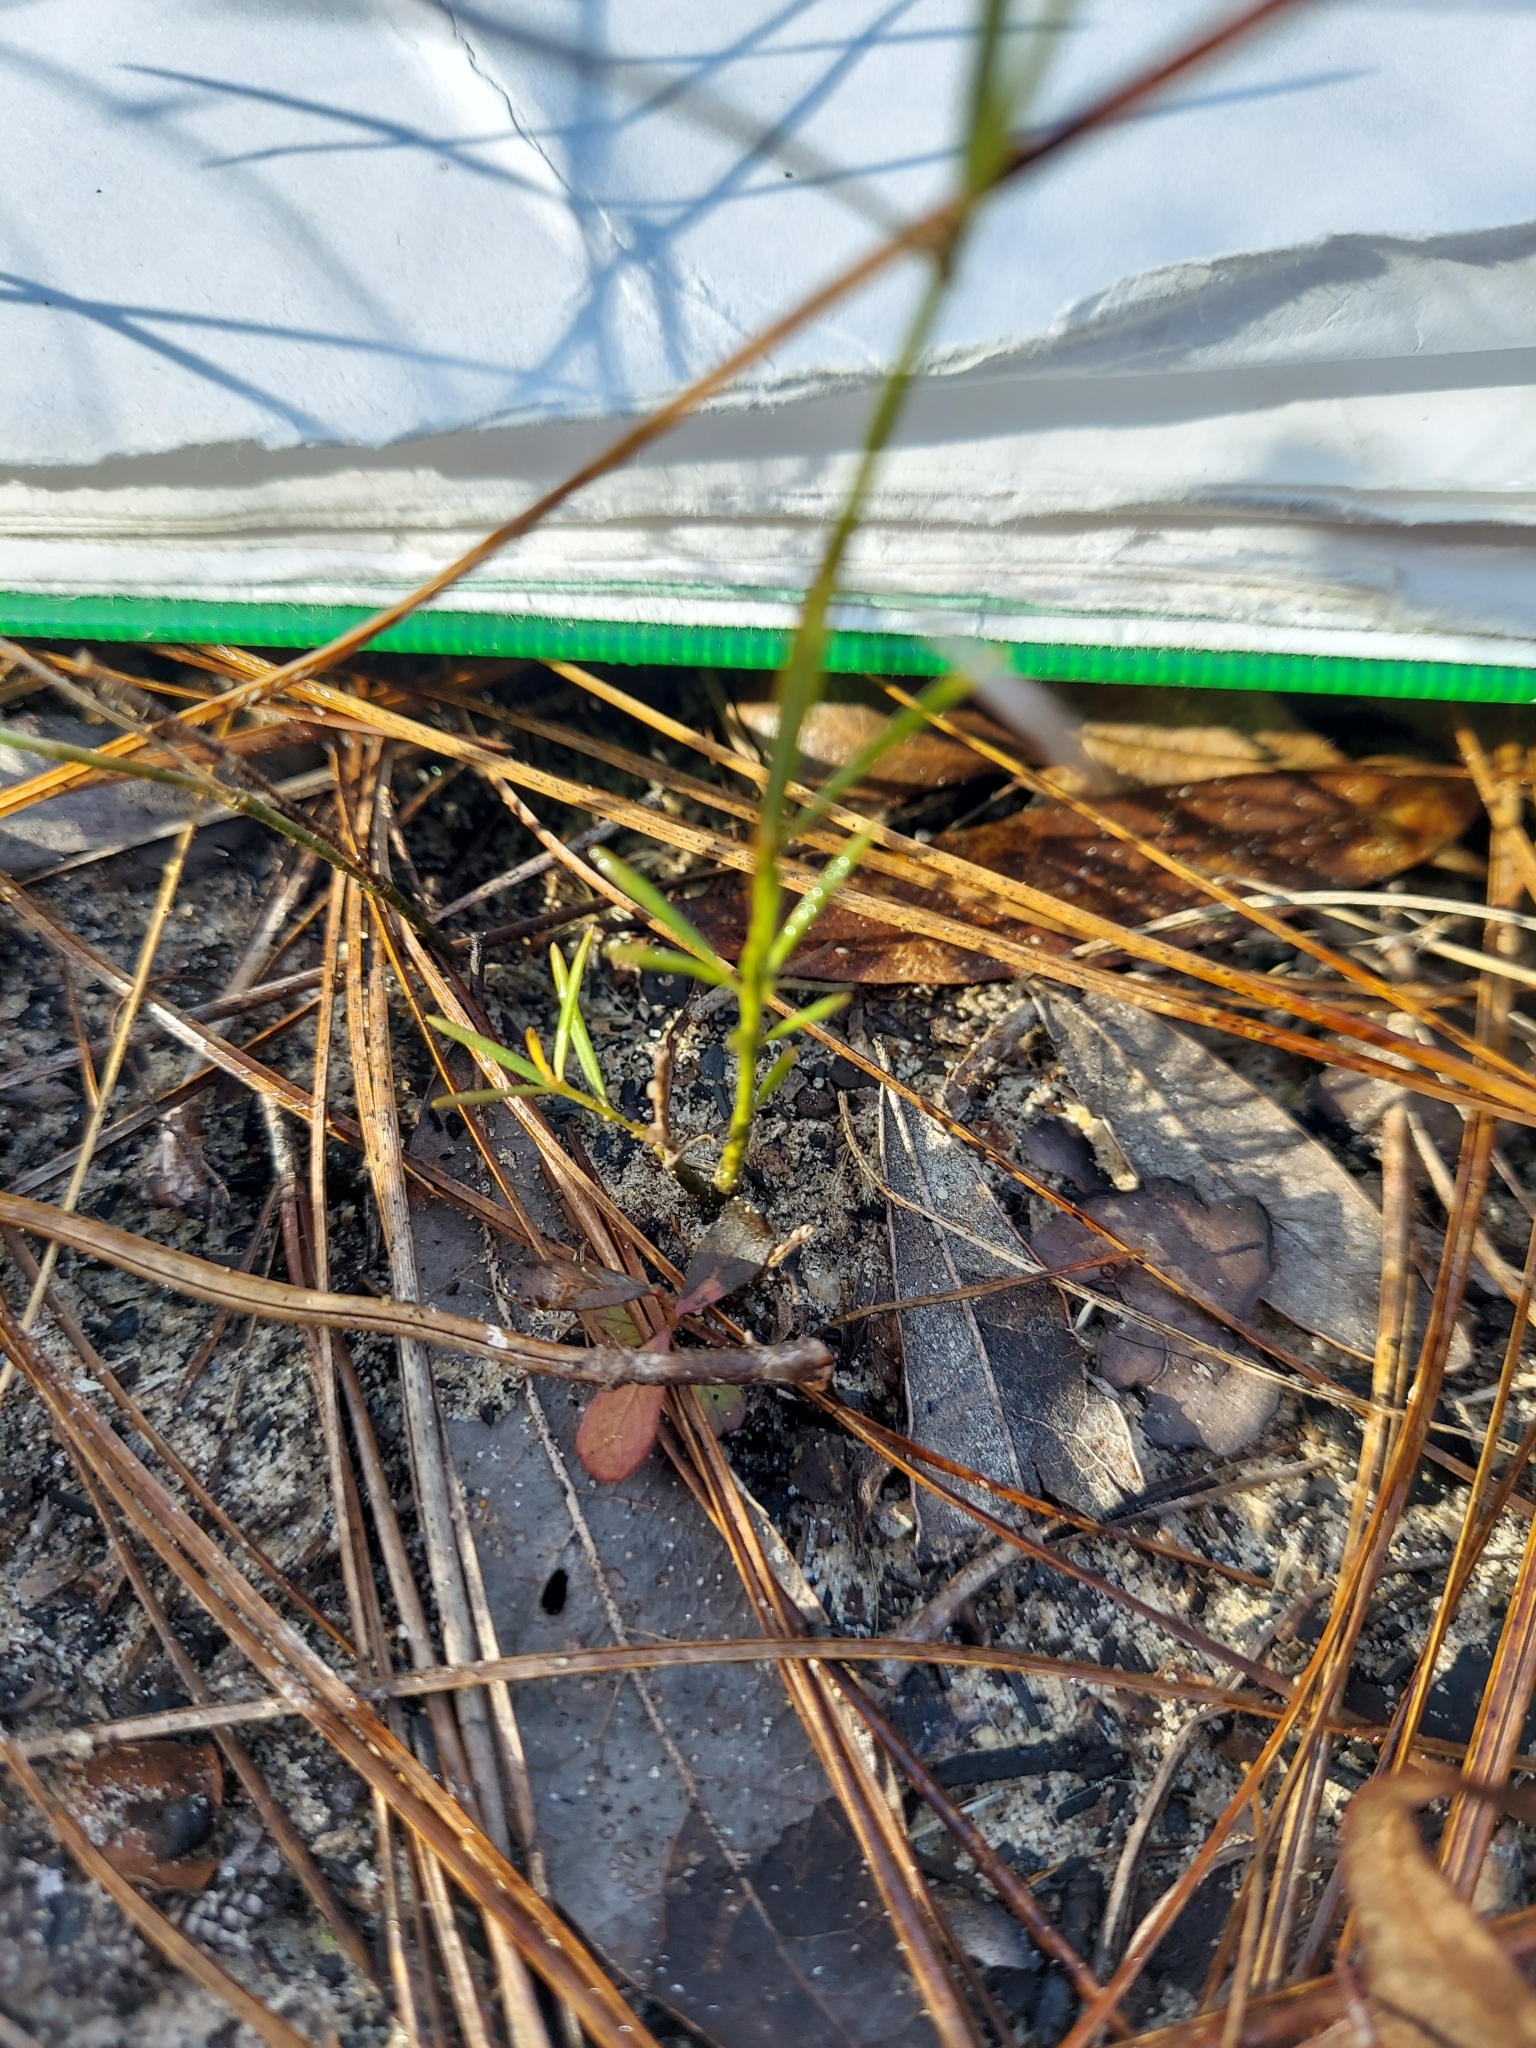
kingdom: Plantae
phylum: Tracheophyta
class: Magnoliopsida
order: Gentianales
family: Apocynaceae
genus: Amsonia
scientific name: Amsonia ciliata
